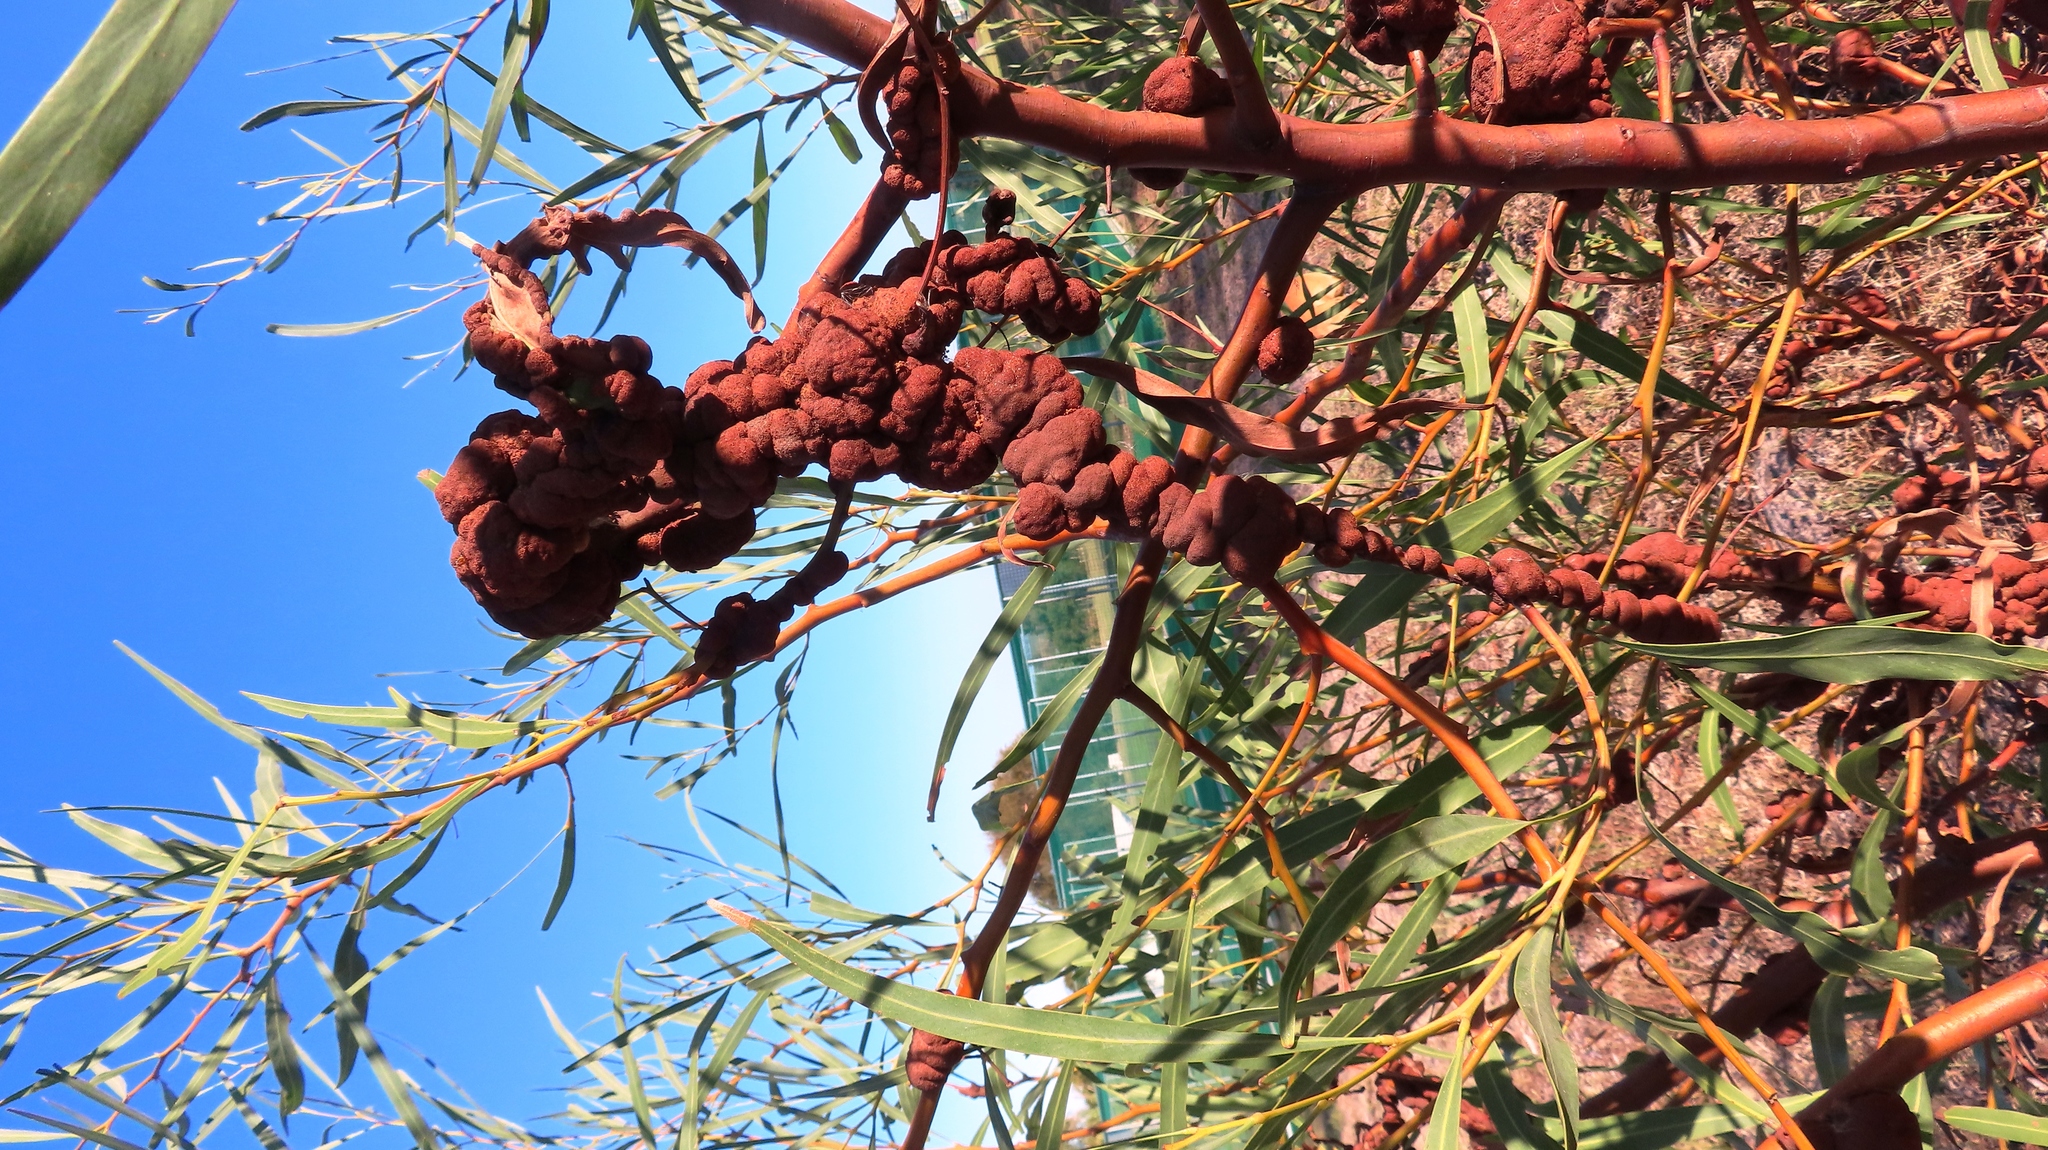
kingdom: Fungi
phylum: Basidiomycota
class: Pucciniomycetes
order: Pucciniales
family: Uromycladiaceae
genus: Uromycladium
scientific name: Uromycladium morrisii
